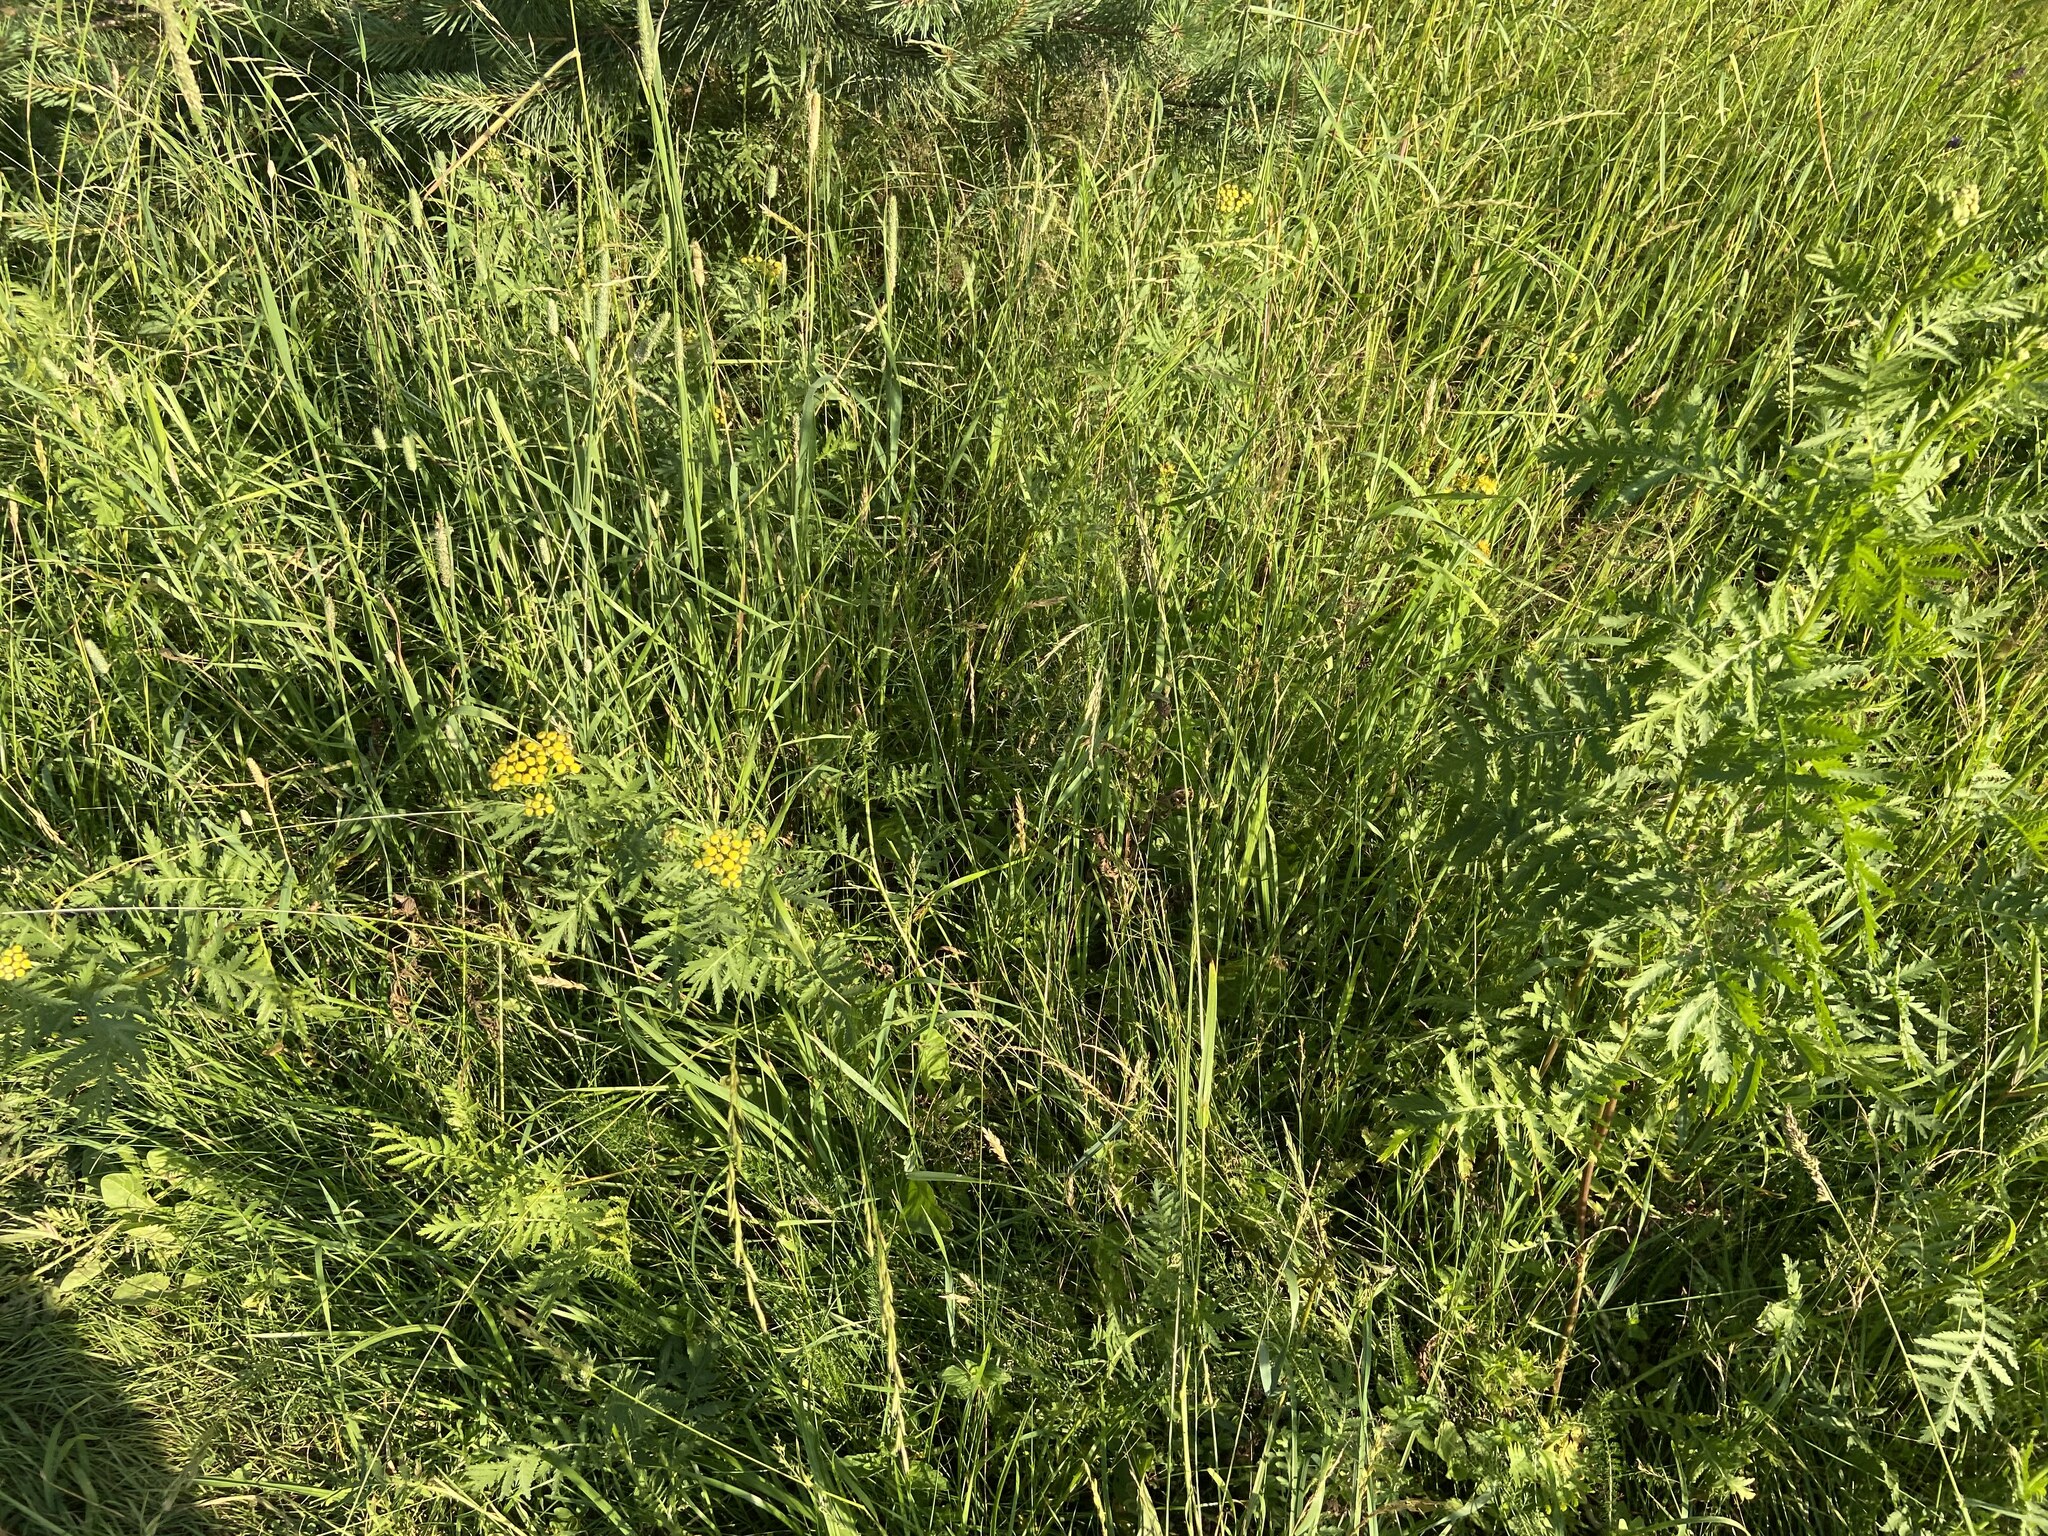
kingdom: Plantae
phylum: Tracheophyta
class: Magnoliopsida
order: Asterales
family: Asteraceae
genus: Tanacetum
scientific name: Tanacetum vulgare
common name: Common tansy
